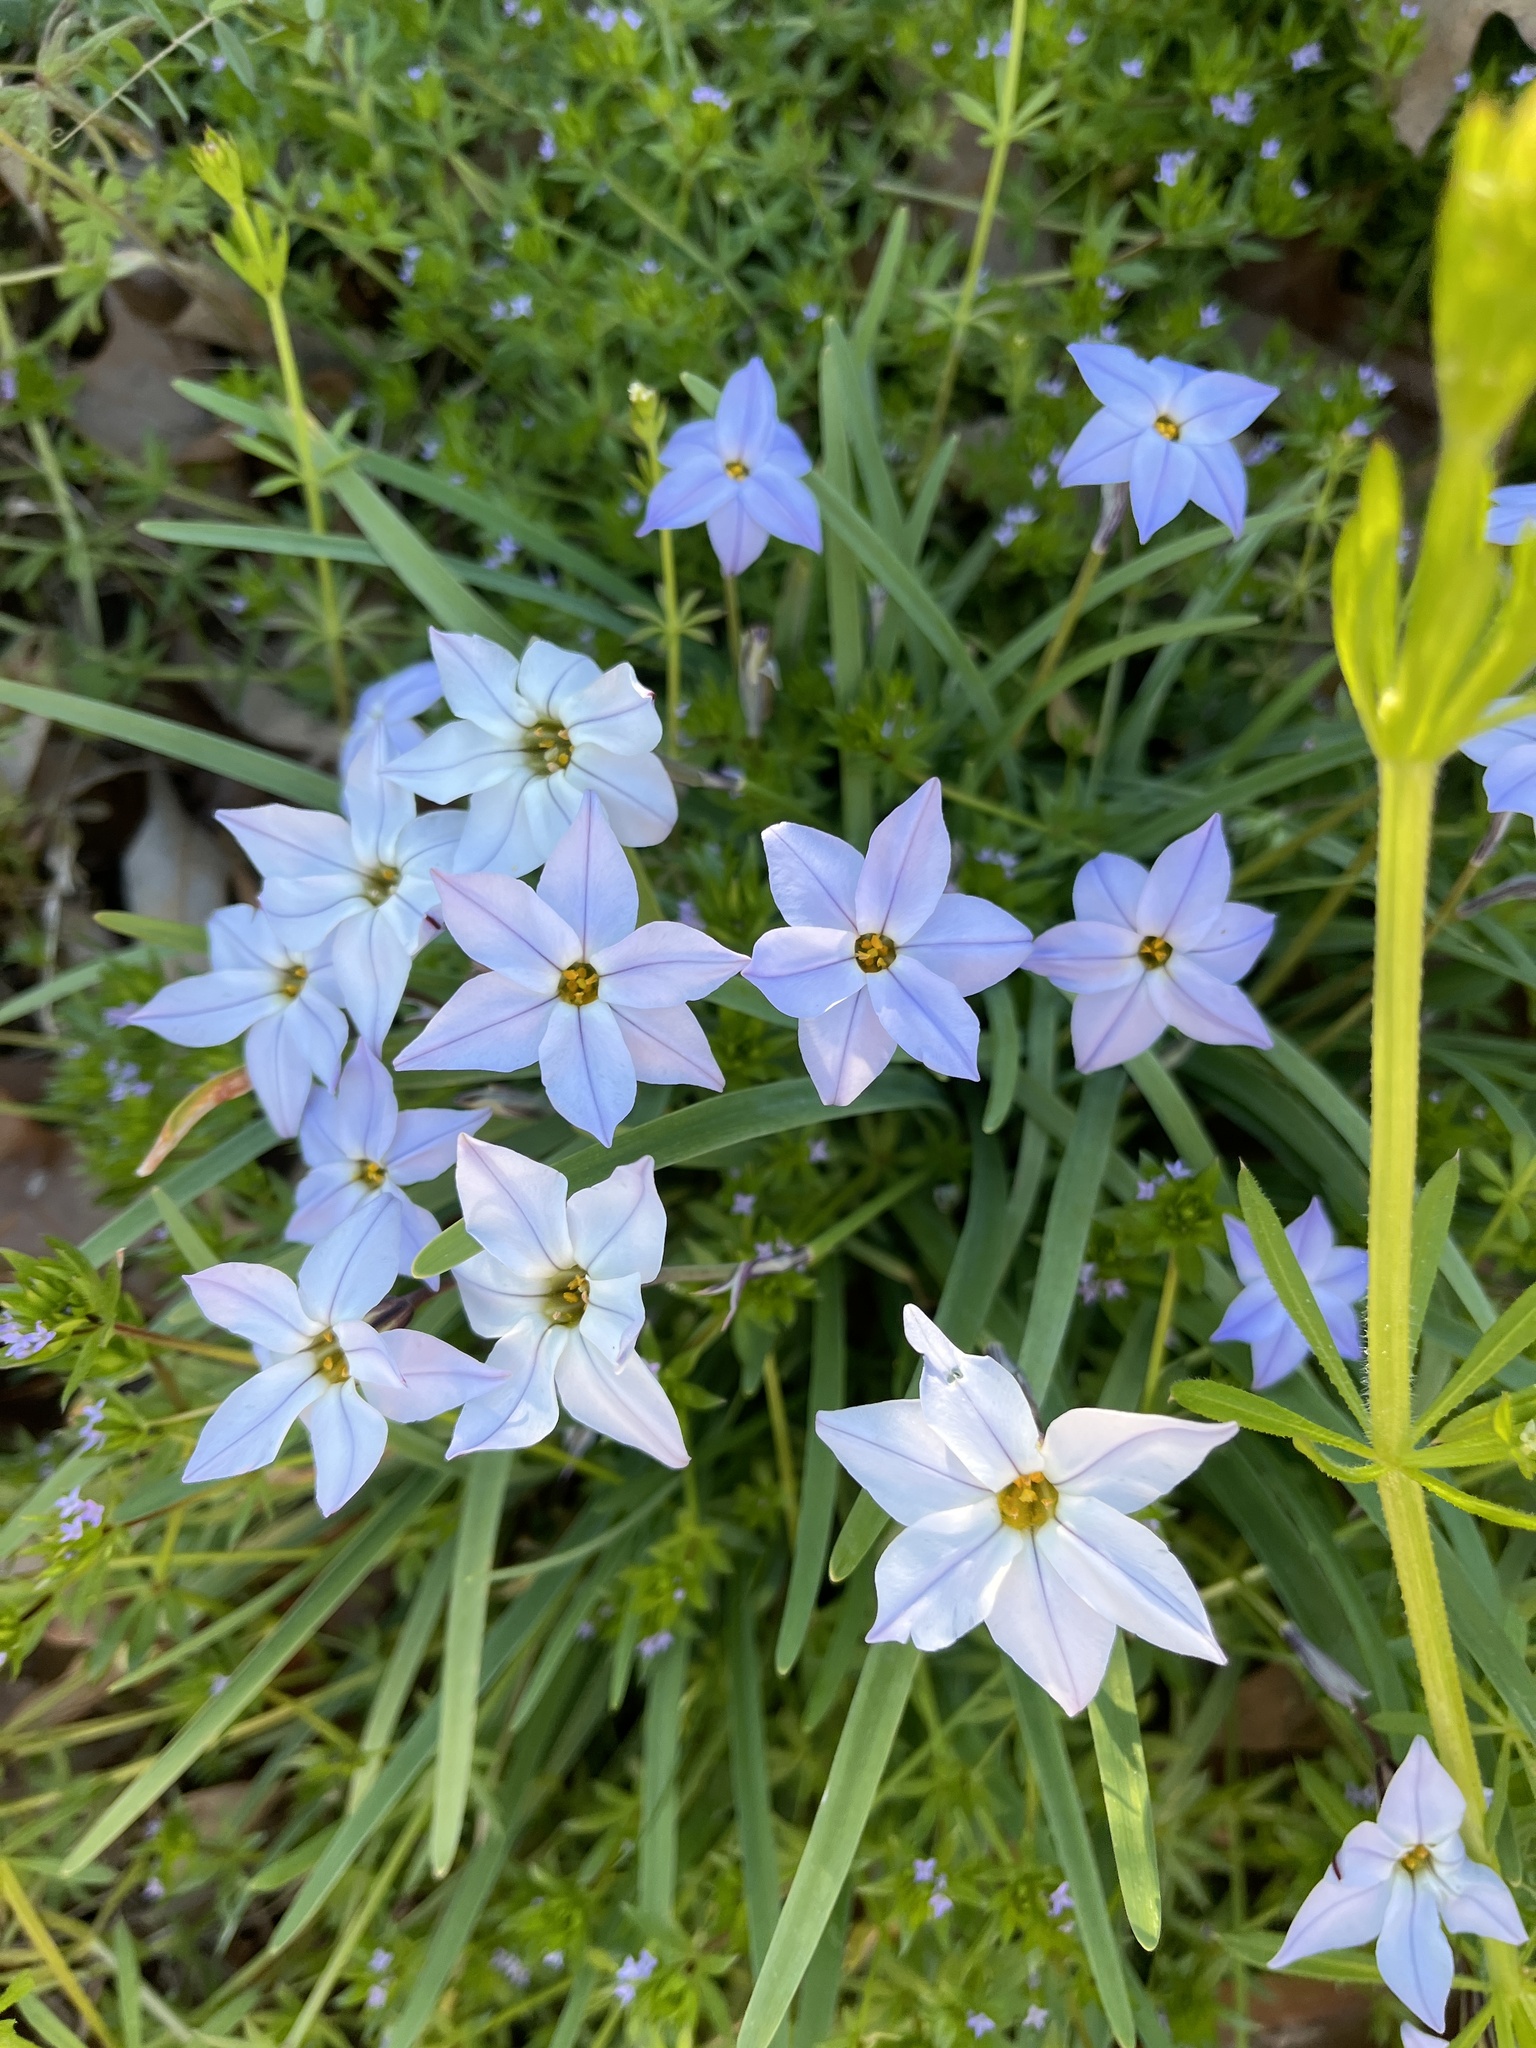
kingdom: Plantae
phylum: Tracheophyta
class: Liliopsida
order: Asparagales
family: Amaryllidaceae
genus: Ipheion
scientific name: Ipheion uniflorum
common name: Spring starflower
